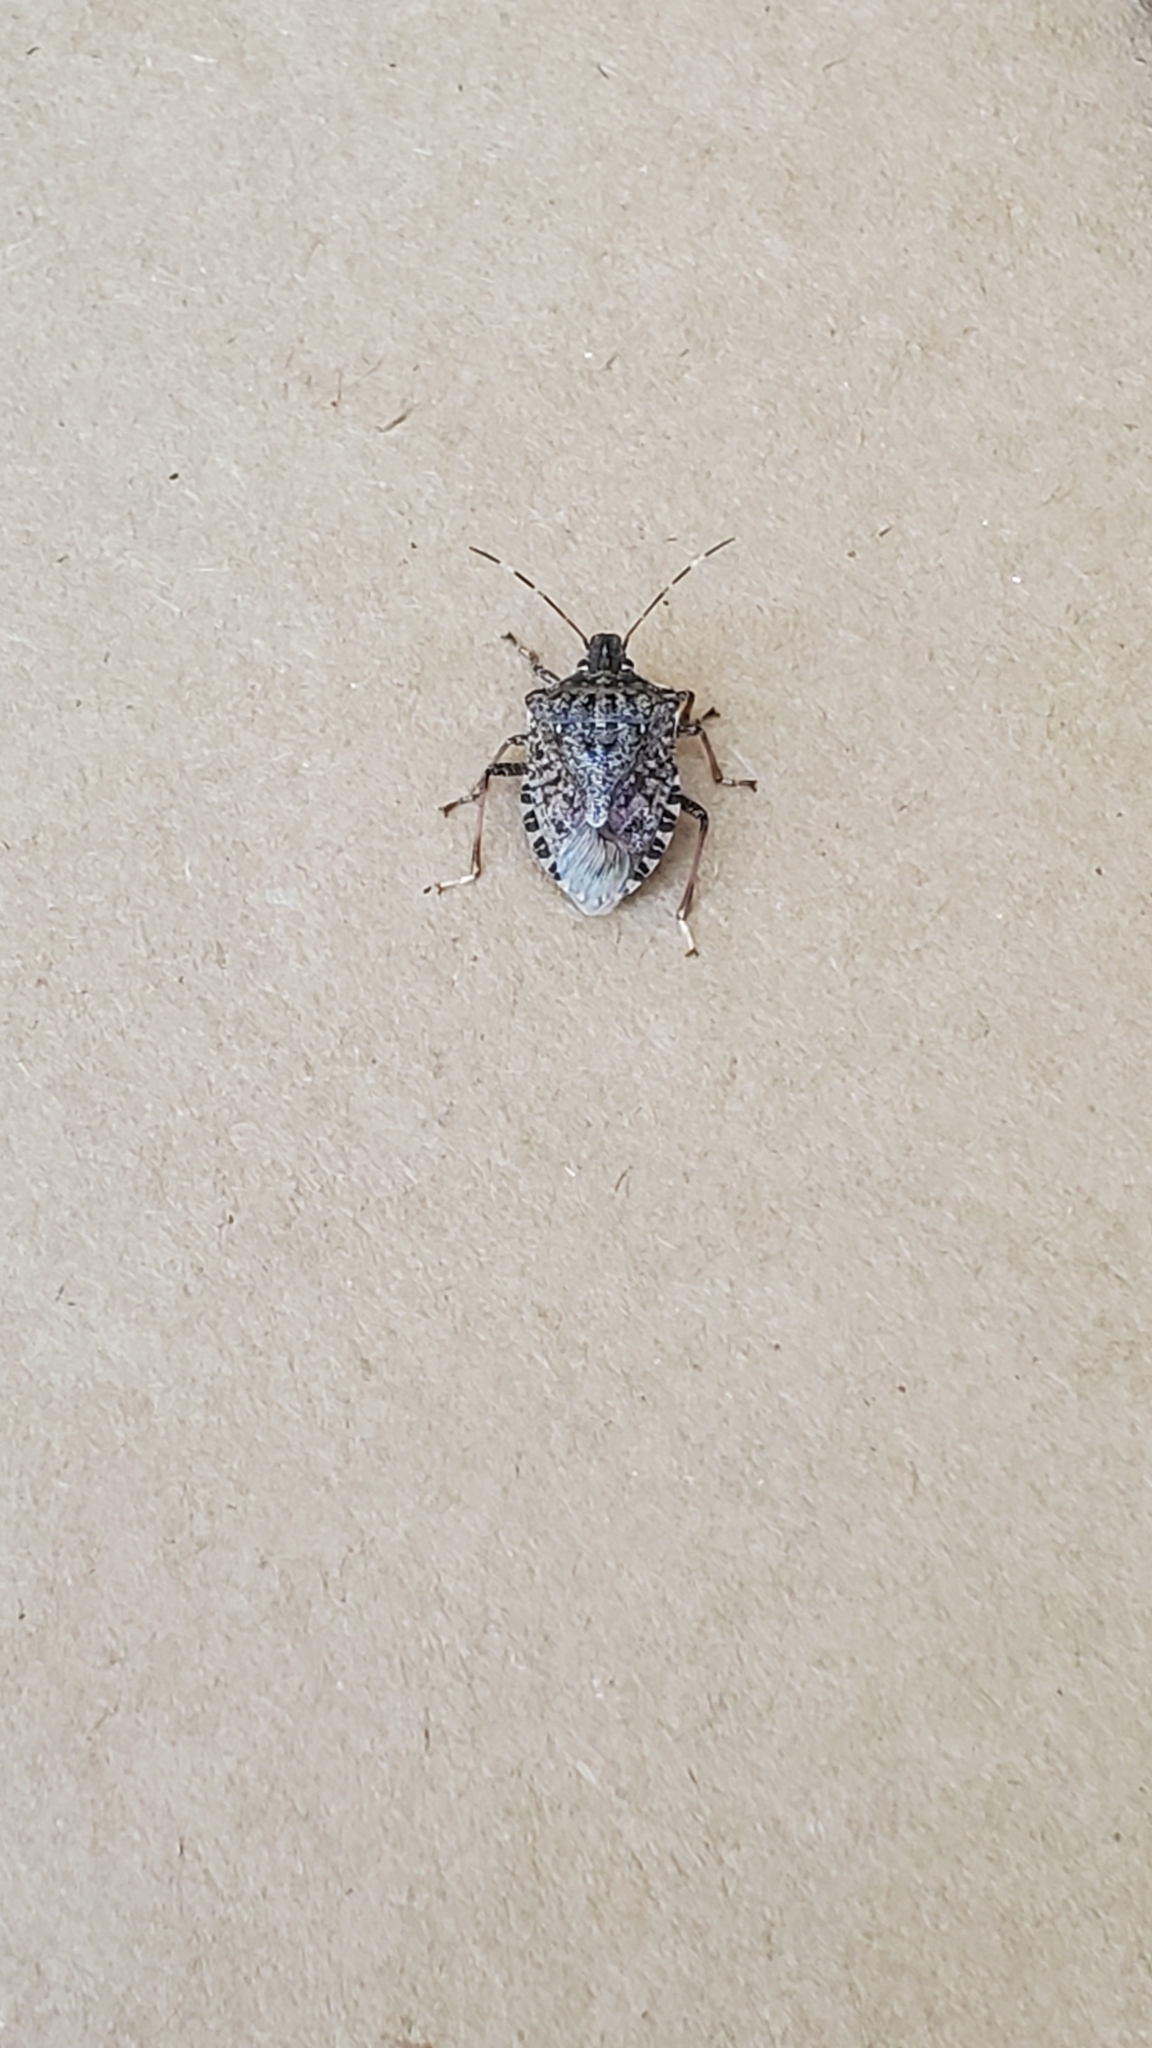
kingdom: Animalia
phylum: Arthropoda
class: Insecta
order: Hemiptera
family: Pentatomidae
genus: Halyomorpha
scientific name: Halyomorpha halys
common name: Brown marmorated stink bug
